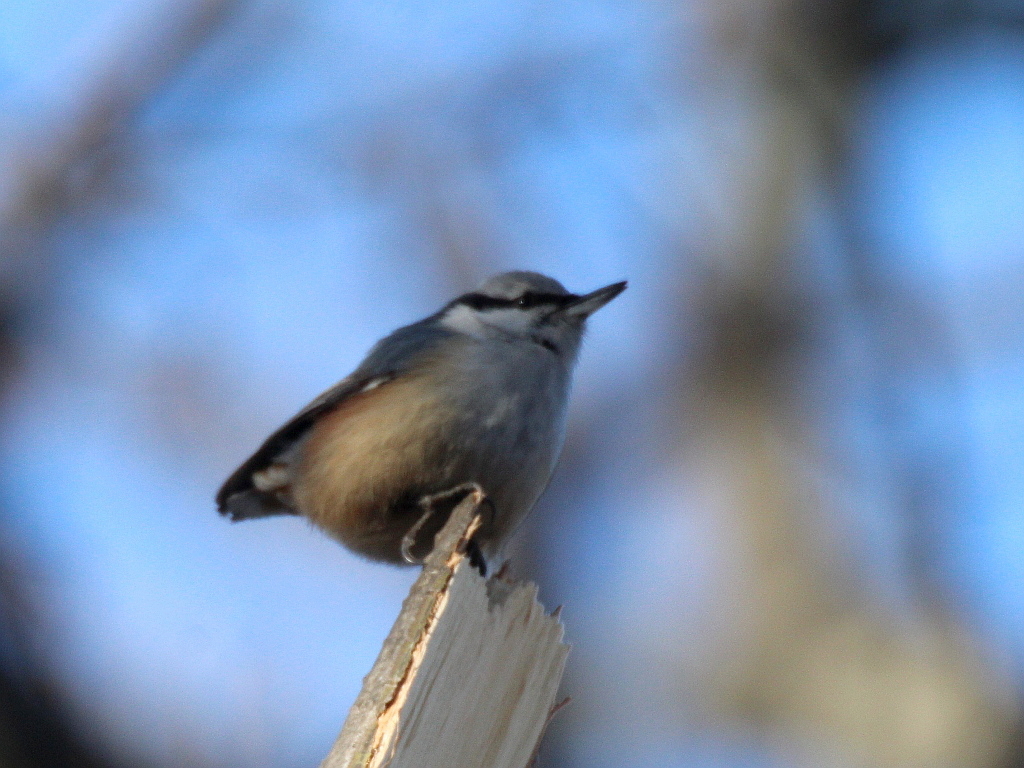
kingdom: Animalia
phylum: Chordata
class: Aves
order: Passeriformes
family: Sittidae
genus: Sitta
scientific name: Sitta europaea
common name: Eurasian nuthatch
